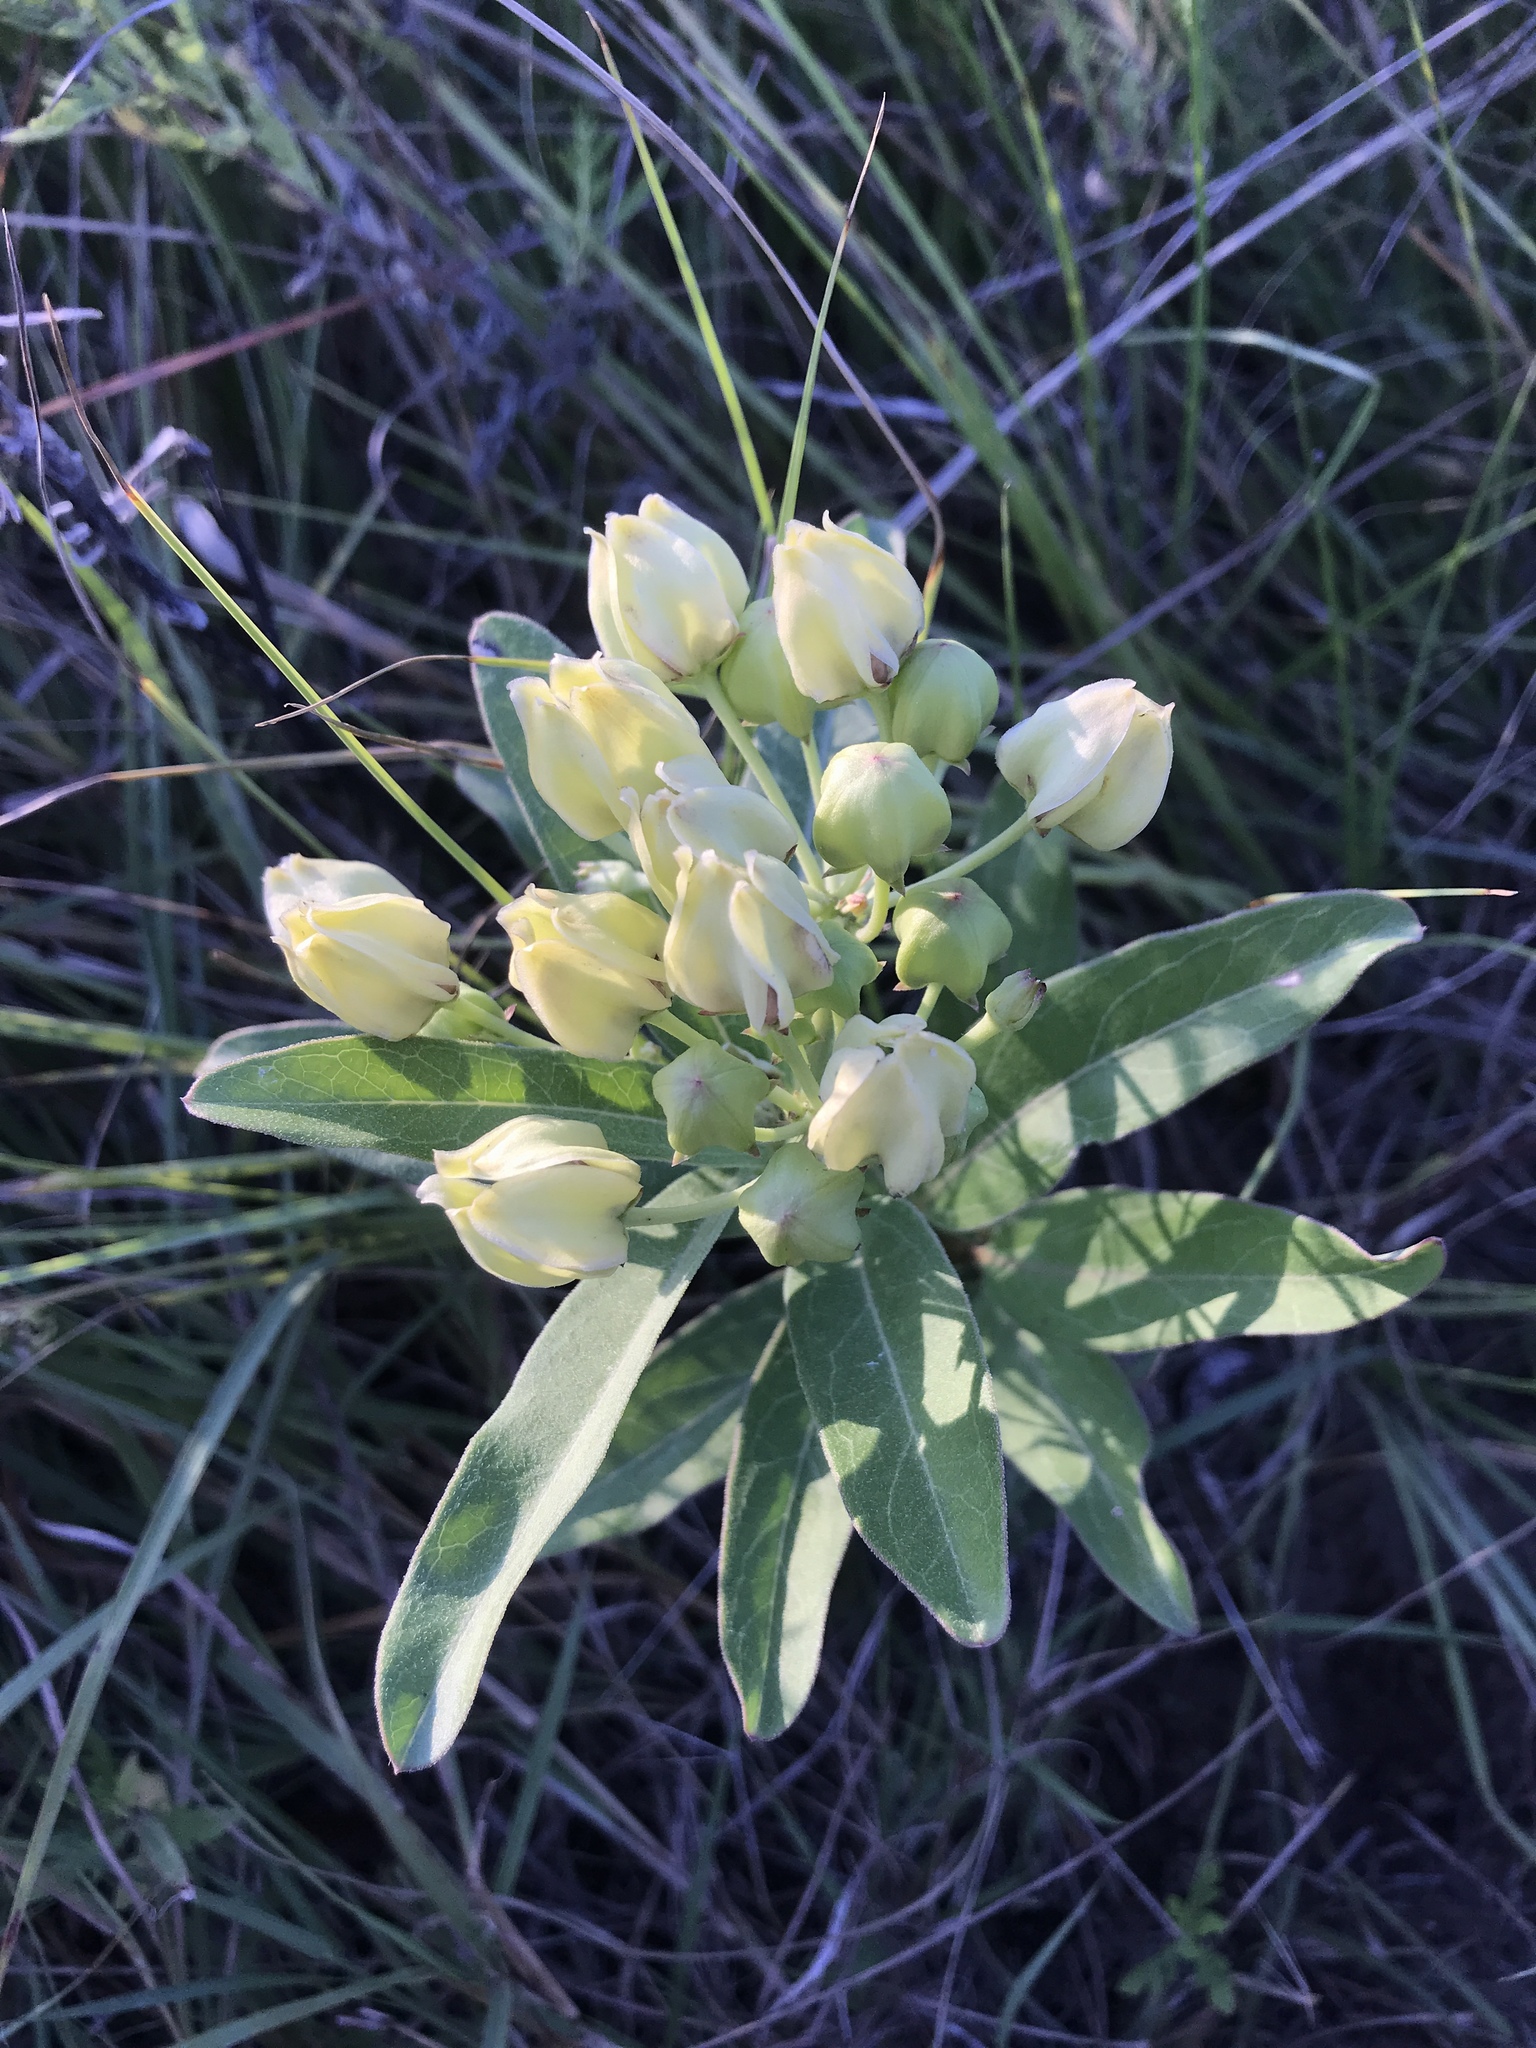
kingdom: Plantae
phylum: Tracheophyta
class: Magnoliopsida
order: Gentianales
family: Apocynaceae
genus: Asclepias
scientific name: Asclepias viridis
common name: Antelope-horns
